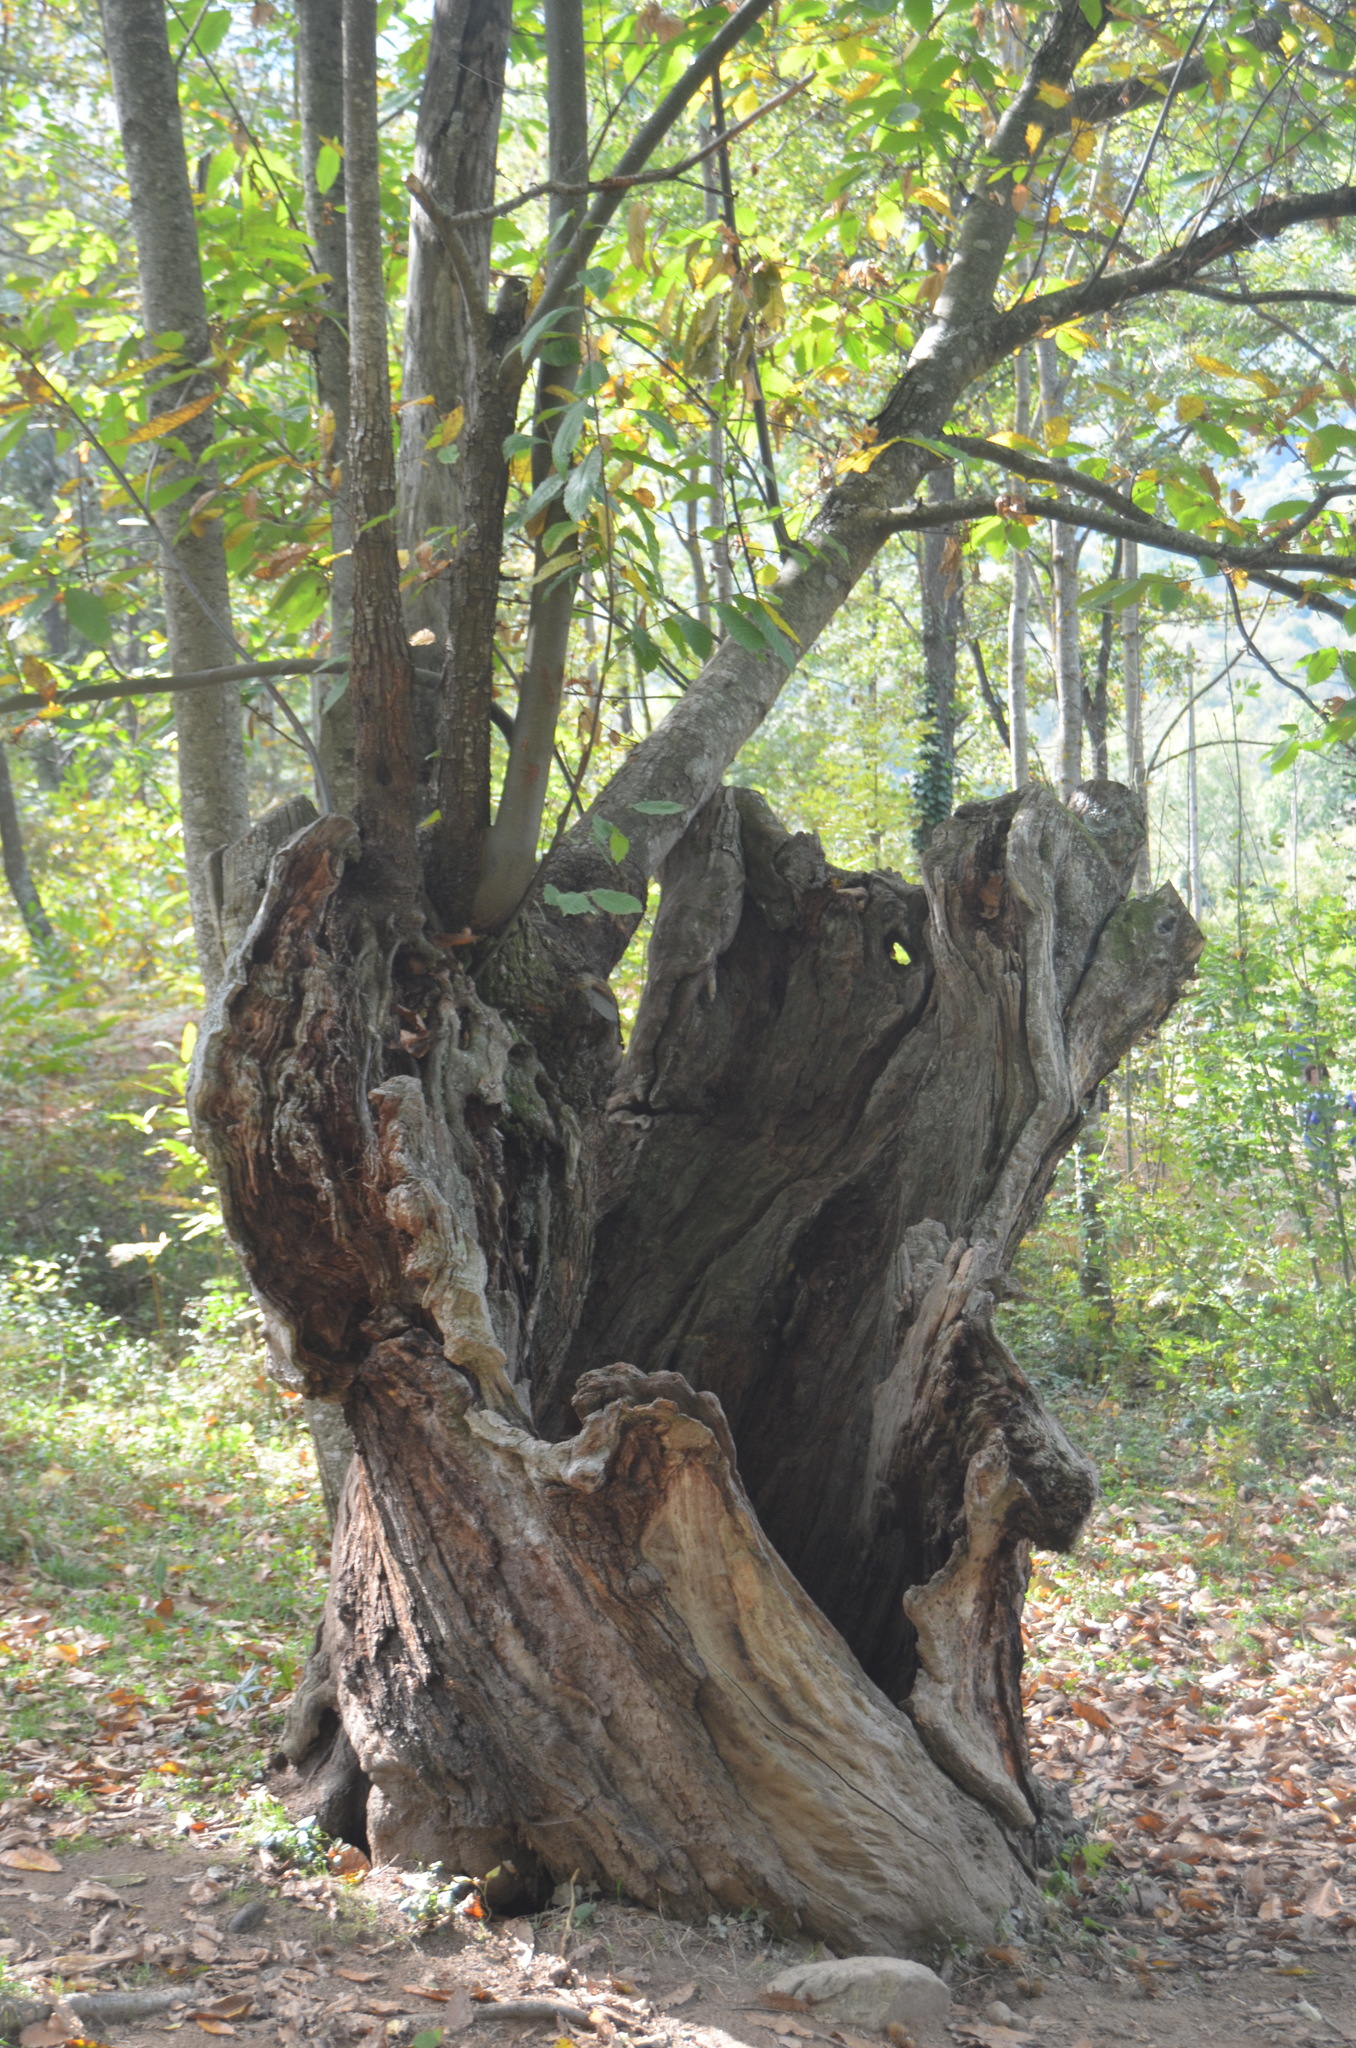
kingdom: Plantae
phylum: Tracheophyta
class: Magnoliopsida
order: Fagales
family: Fagaceae
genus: Castanea
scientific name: Castanea sativa
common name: Sweet chestnut
